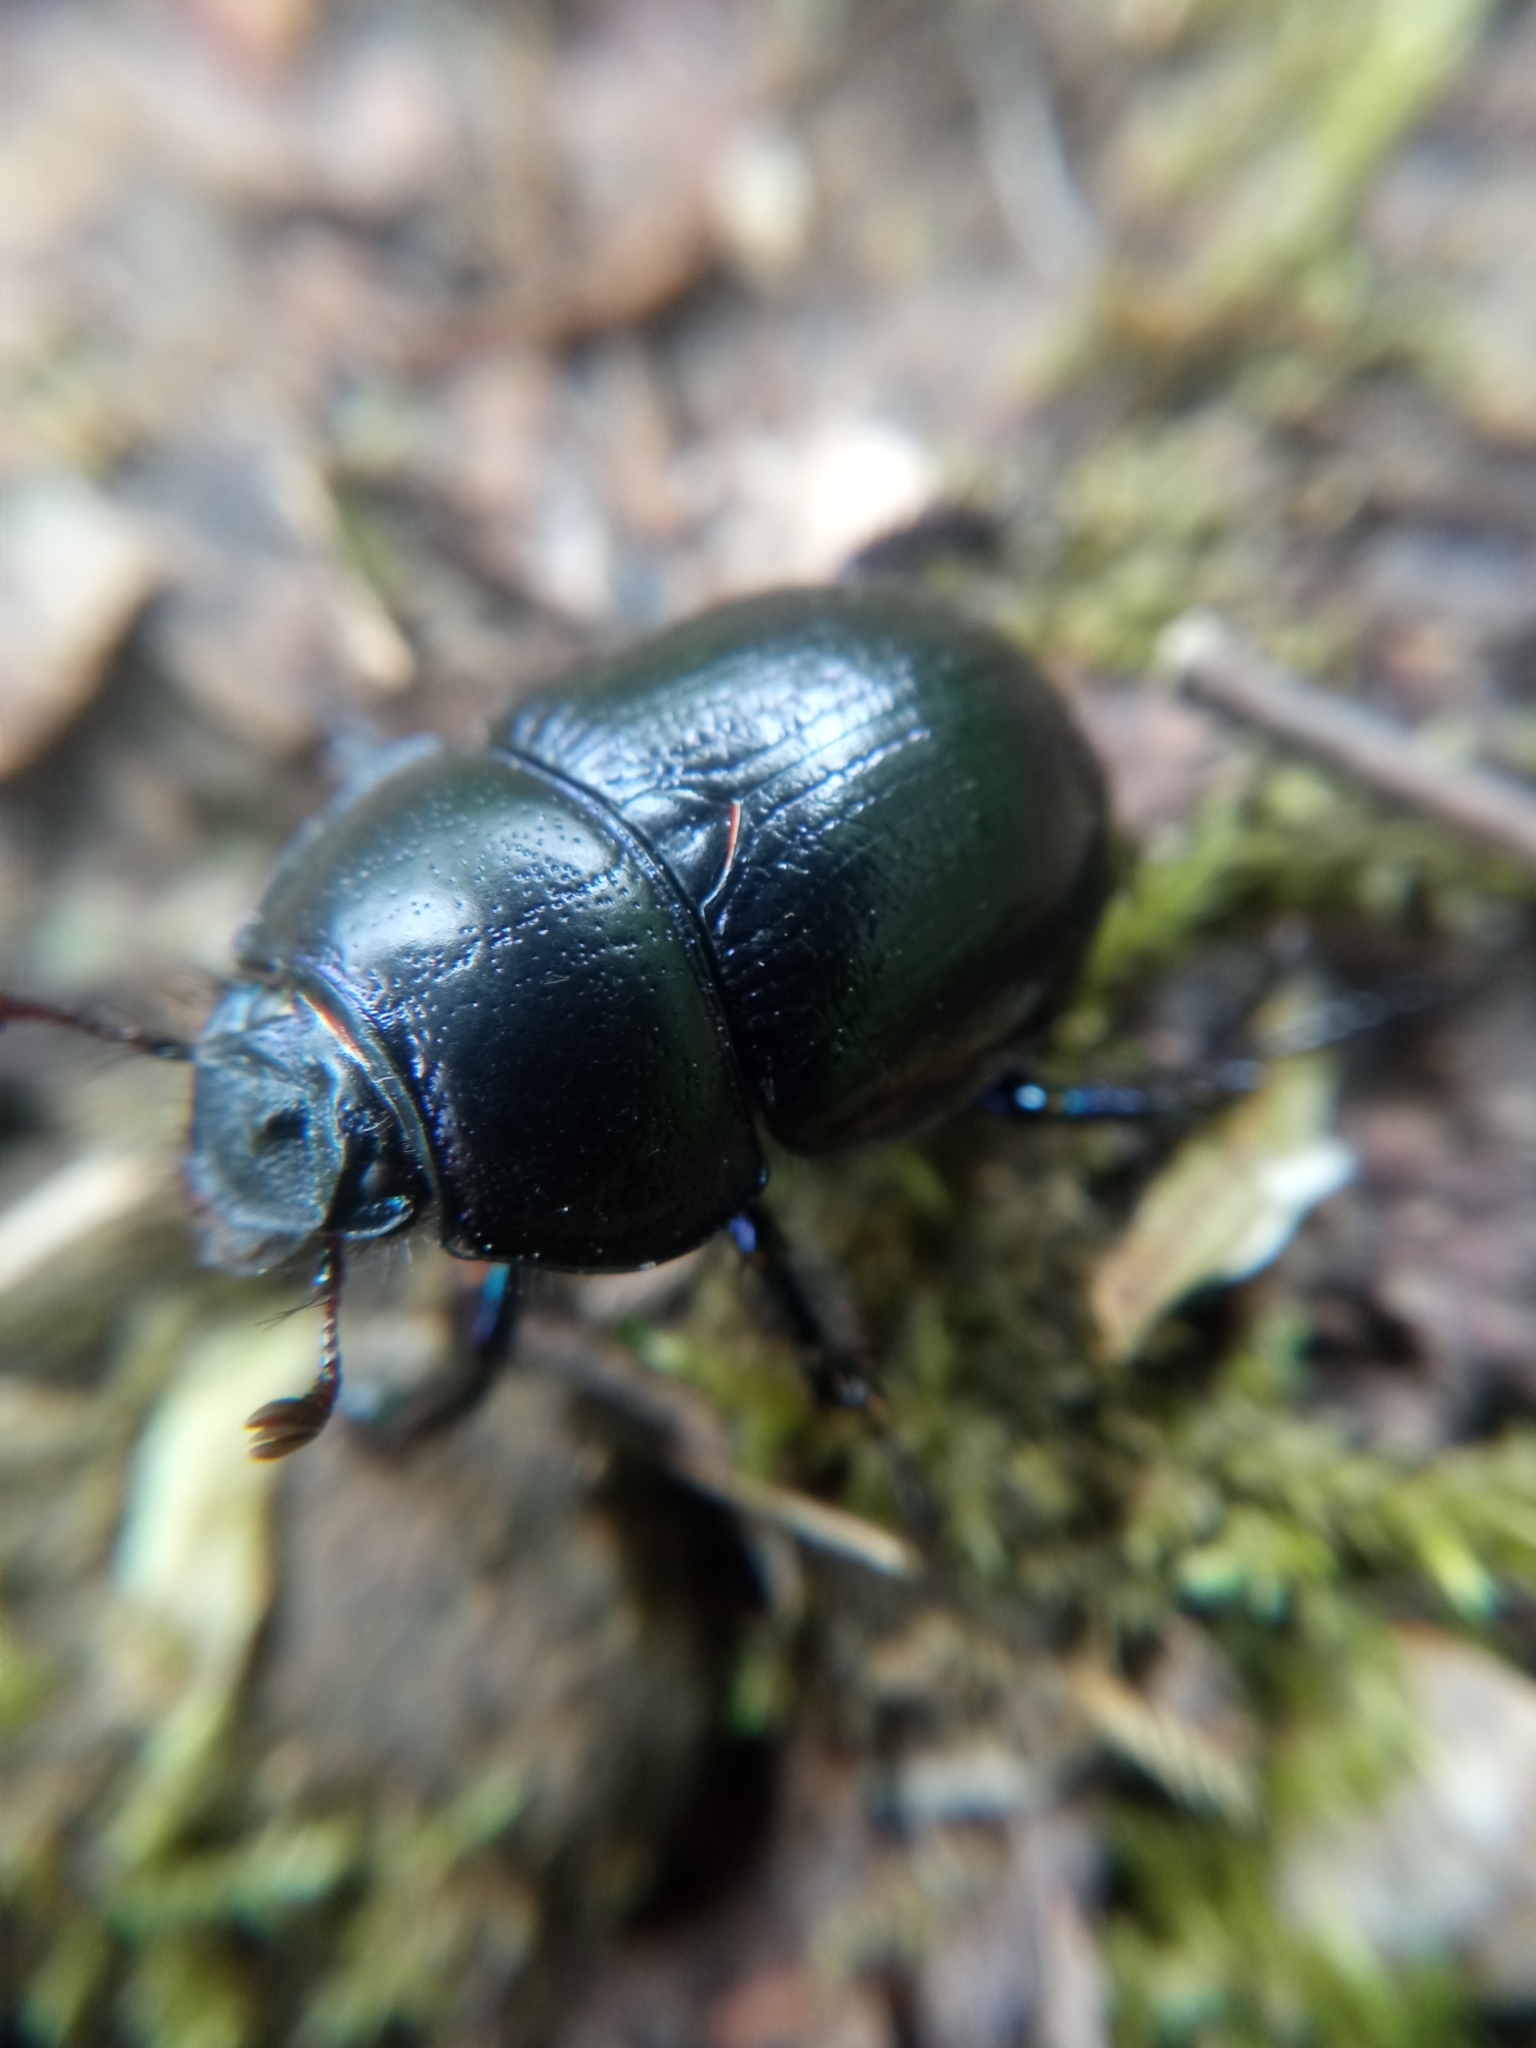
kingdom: Animalia
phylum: Arthropoda
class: Insecta
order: Coleoptera
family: Geotrupidae
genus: Anoplotrupes
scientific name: Anoplotrupes stercorosus
